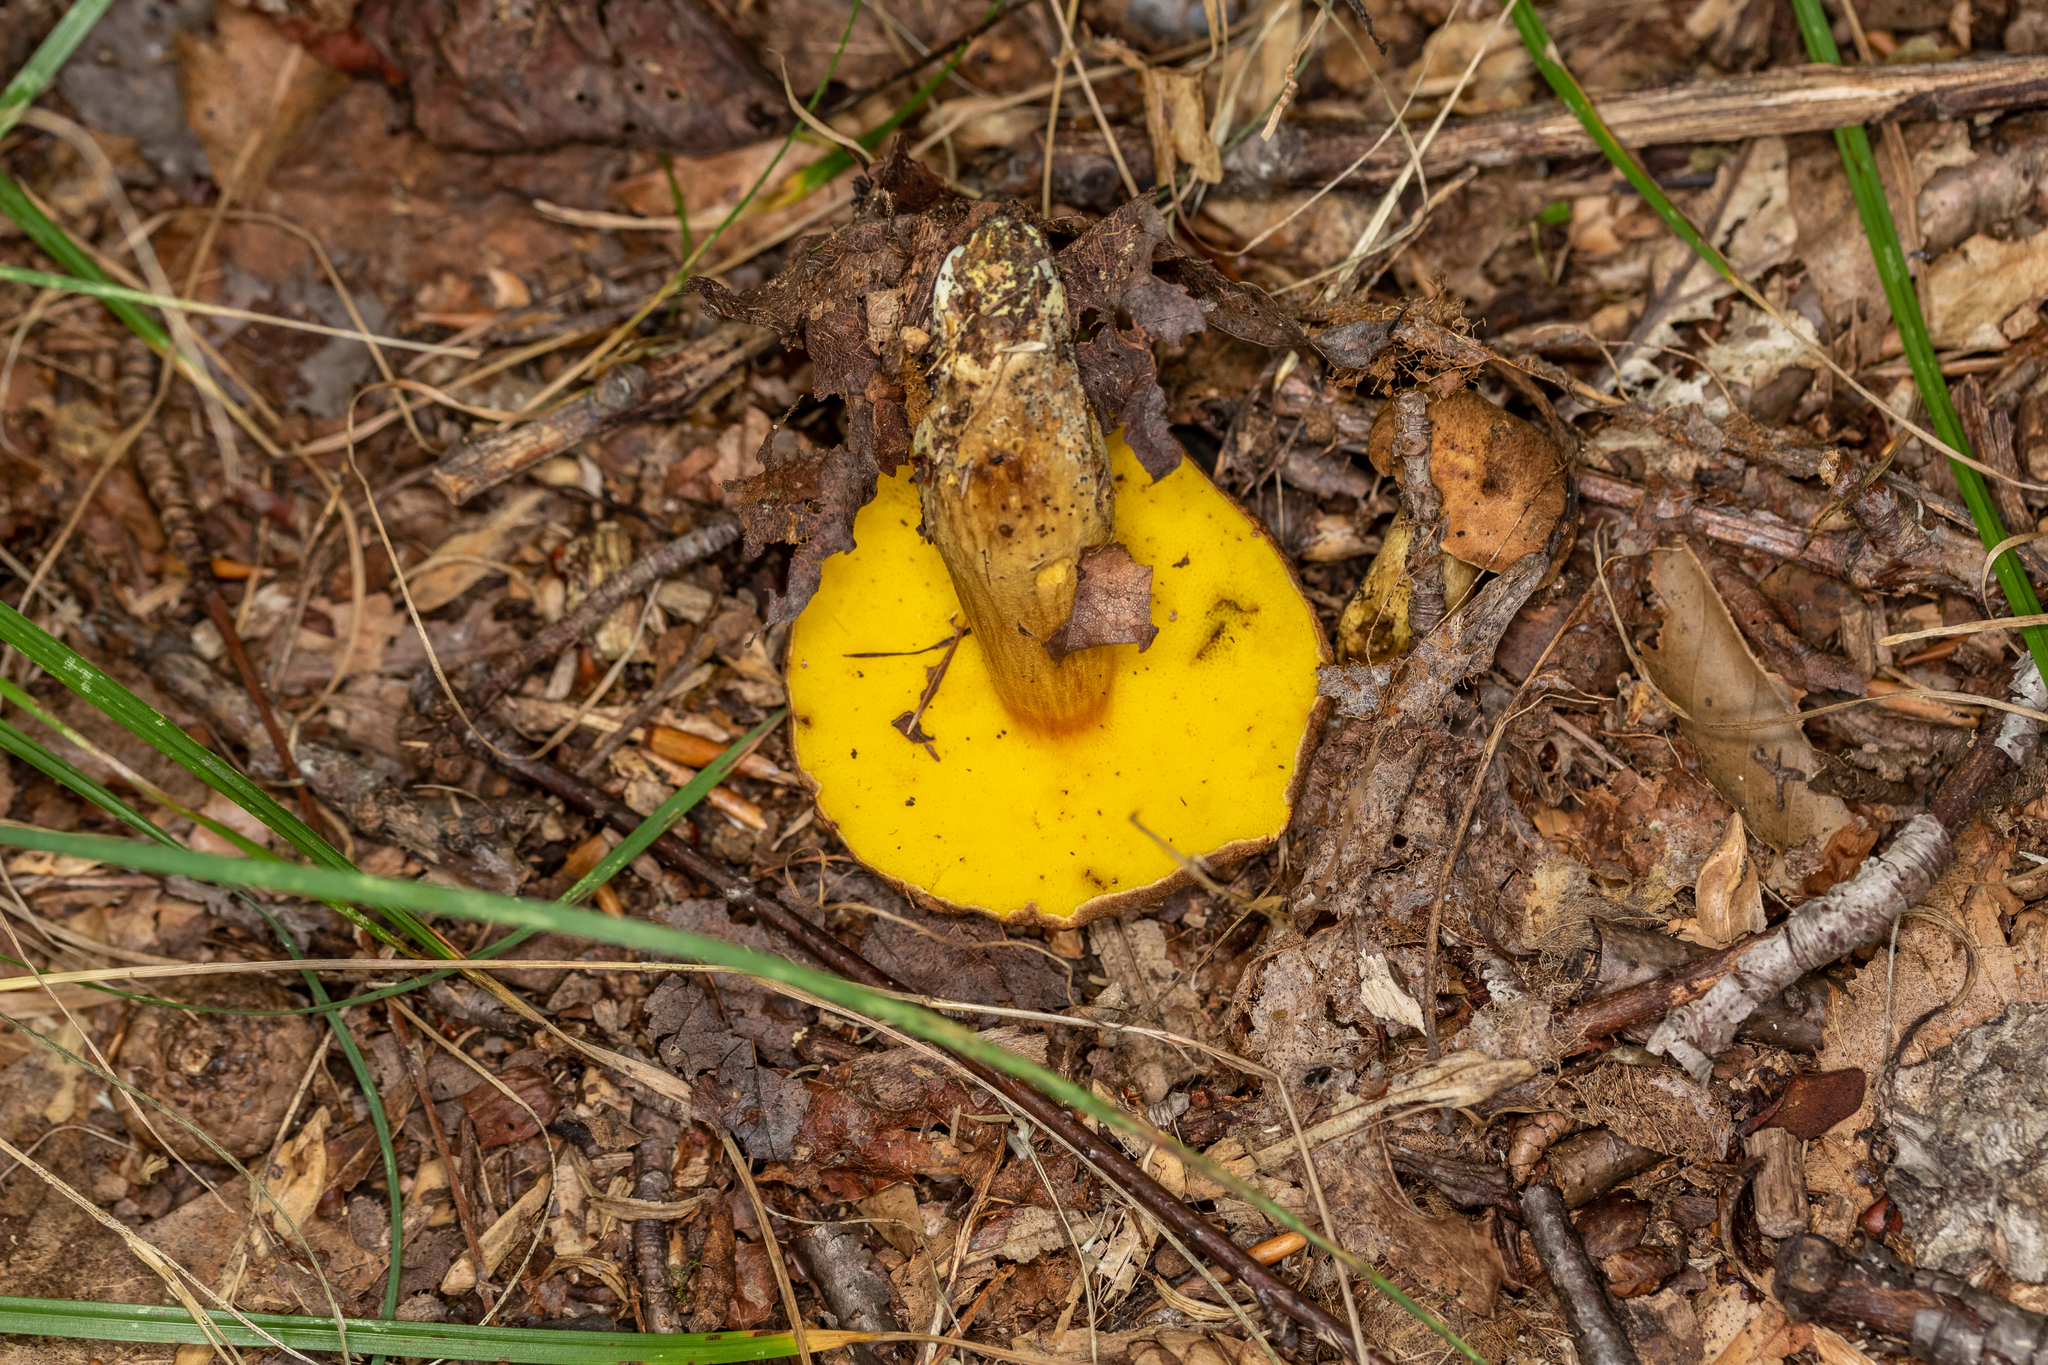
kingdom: Fungi
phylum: Basidiomycota
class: Agaricomycetes
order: Boletales
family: Boletaceae
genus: Aureoboletus
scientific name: Aureoboletus innixus
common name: Clustered brown bolete
